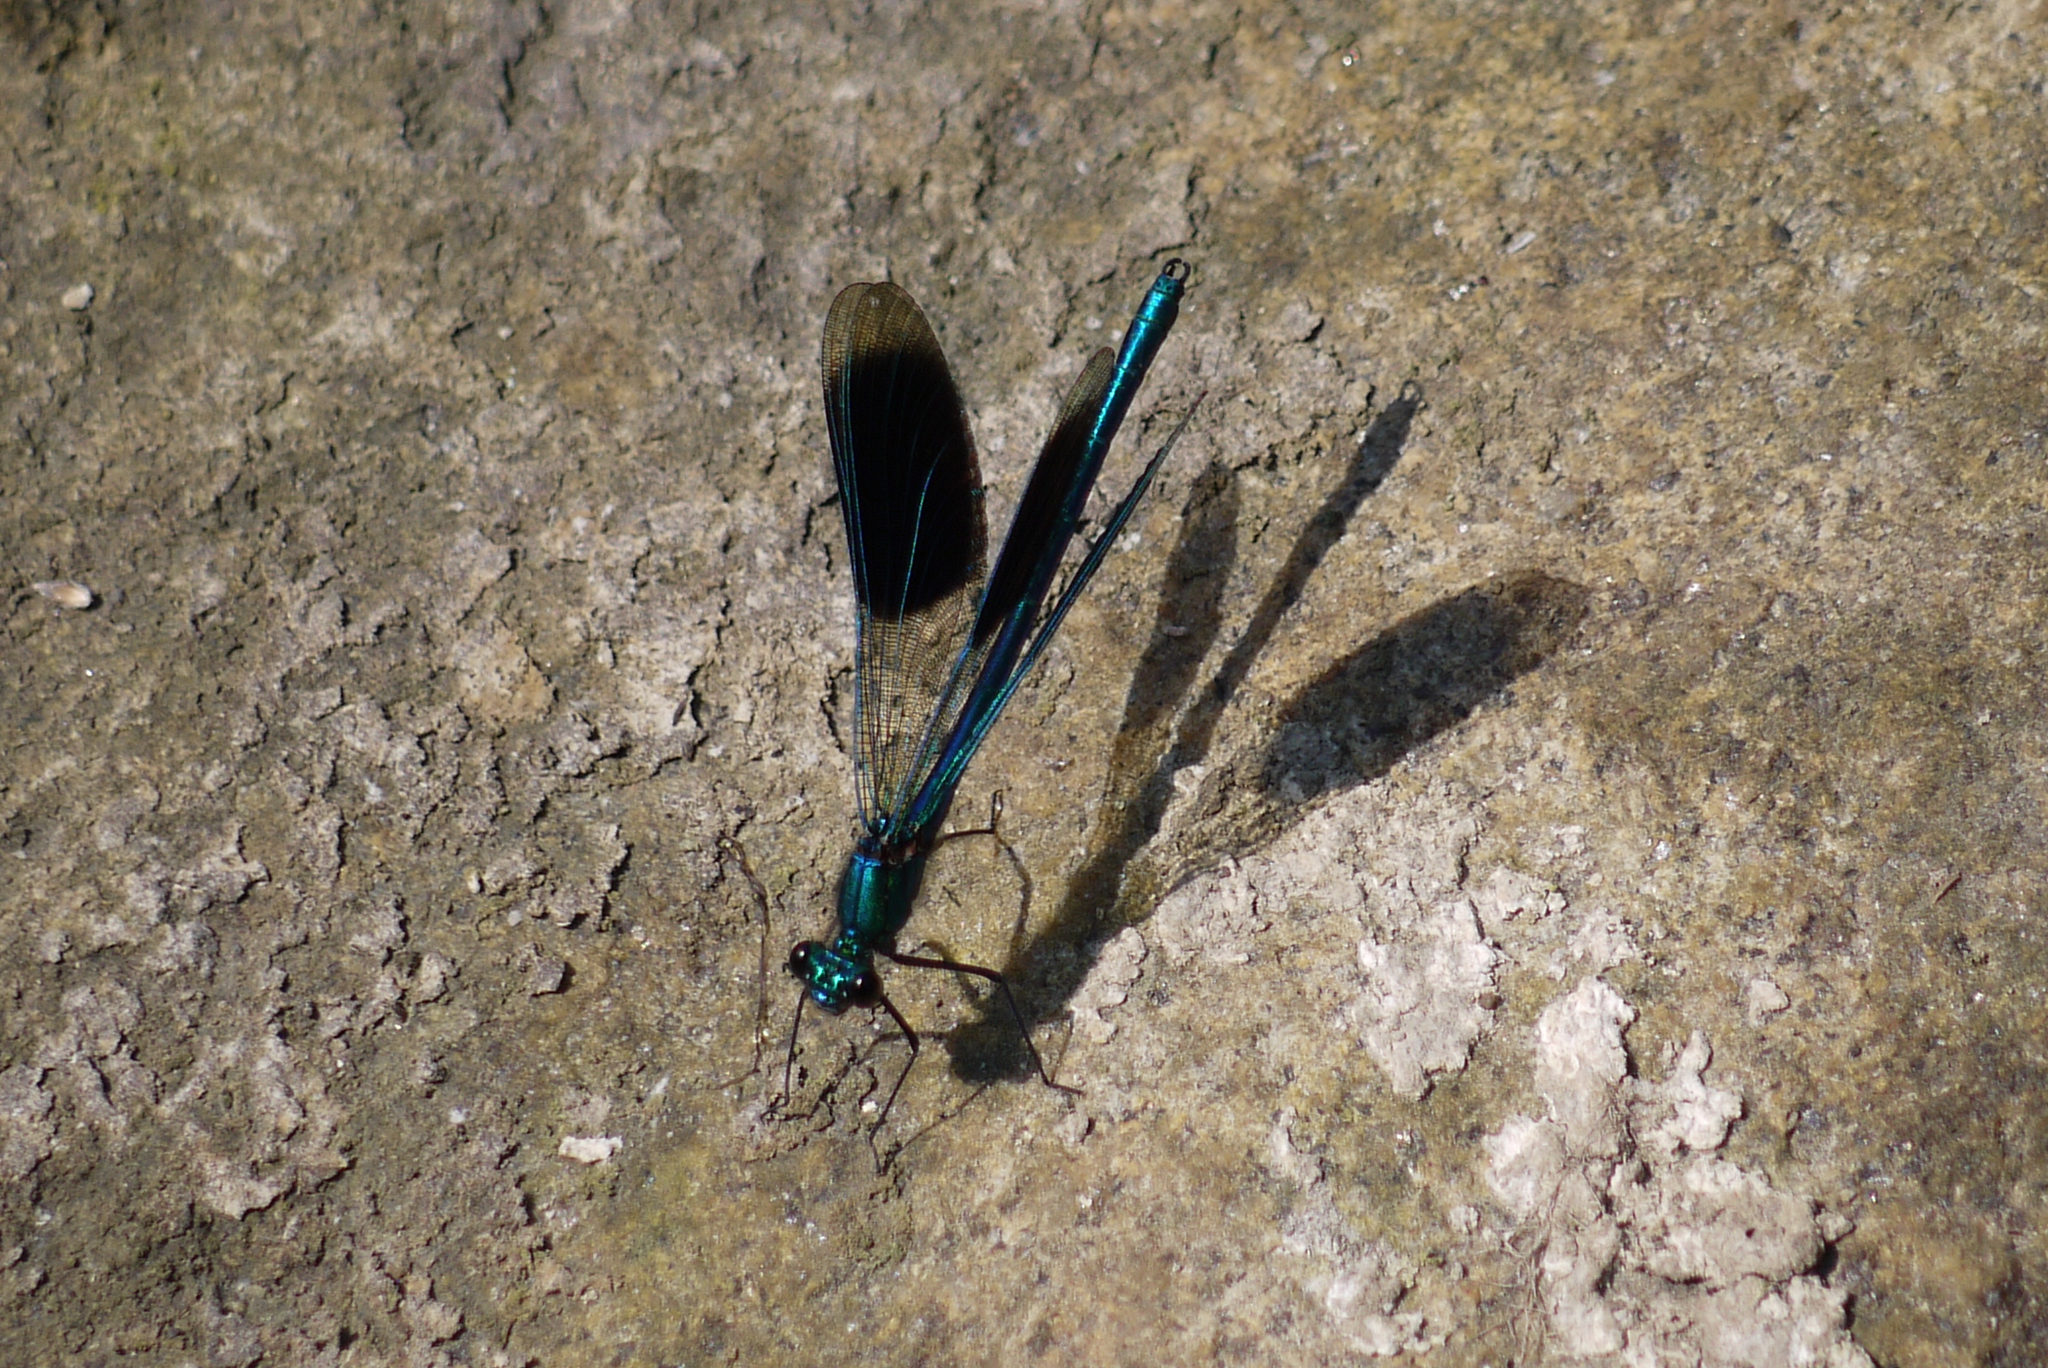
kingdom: Animalia
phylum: Arthropoda
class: Insecta
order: Odonata
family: Calopterygidae
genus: Calopteryx
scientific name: Calopteryx splendens
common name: Banded demoiselle
